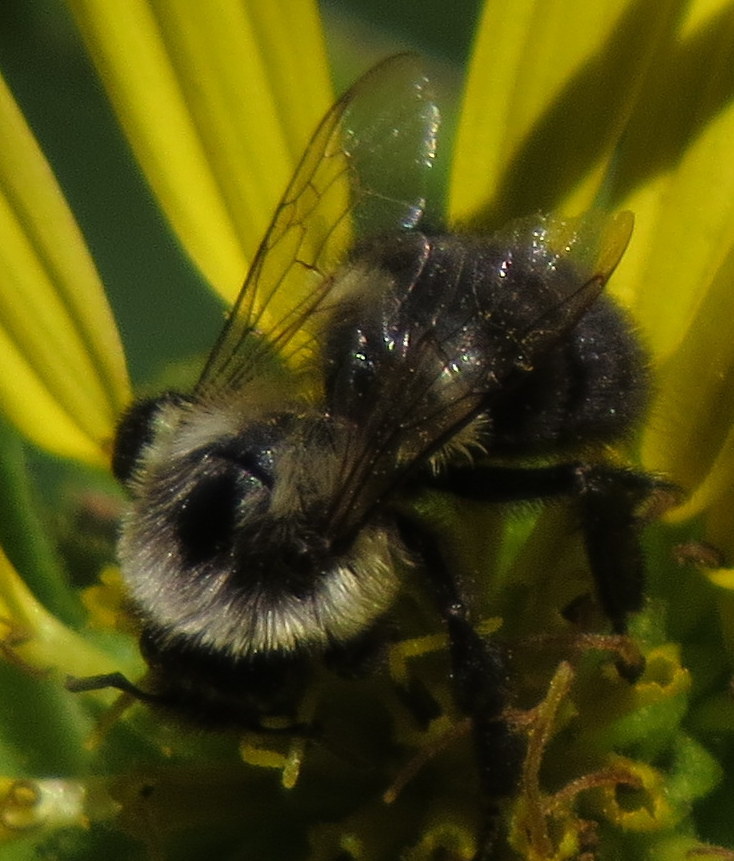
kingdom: Animalia
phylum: Arthropoda
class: Insecta
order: Hymenoptera
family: Apidae
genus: Bombus
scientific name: Bombus impatiens
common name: Common eastern bumble bee
